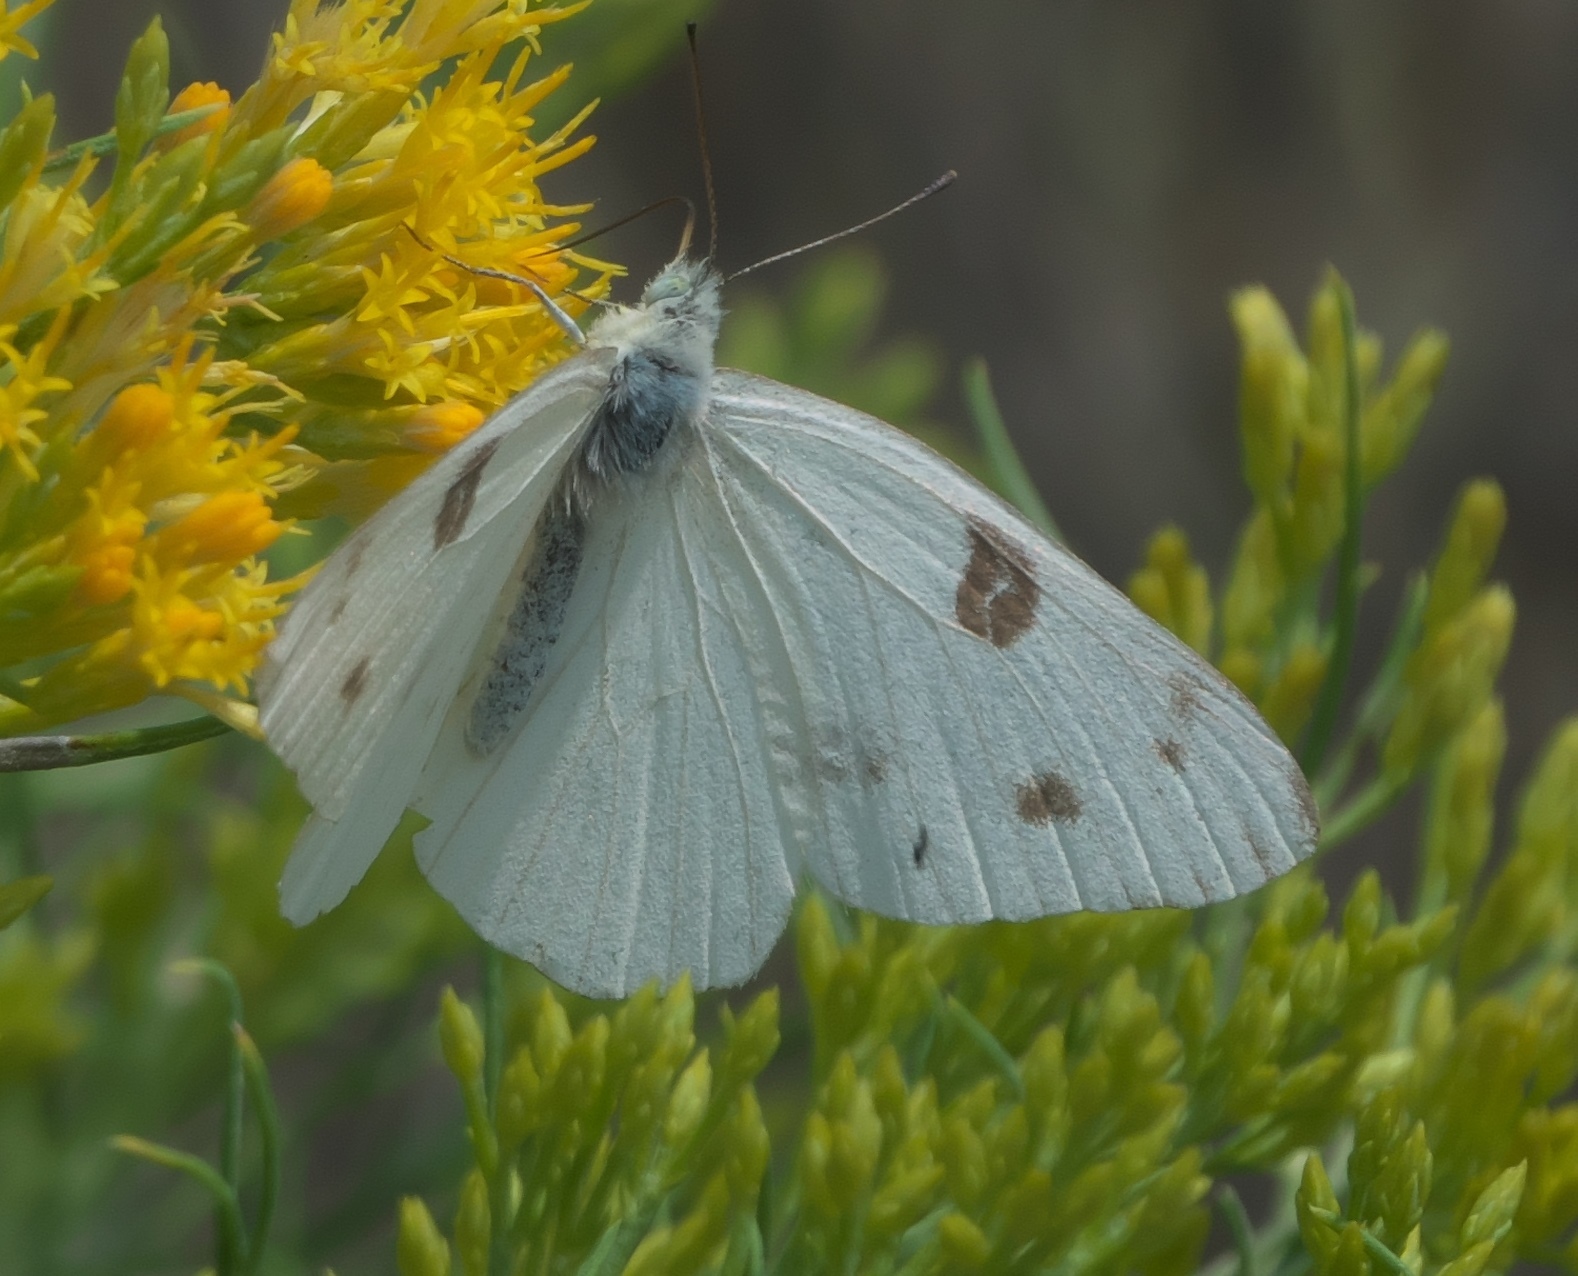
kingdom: Animalia
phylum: Arthropoda
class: Insecta
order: Lepidoptera
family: Pieridae
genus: Pontia
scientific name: Pontia protodice
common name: Checkered white
